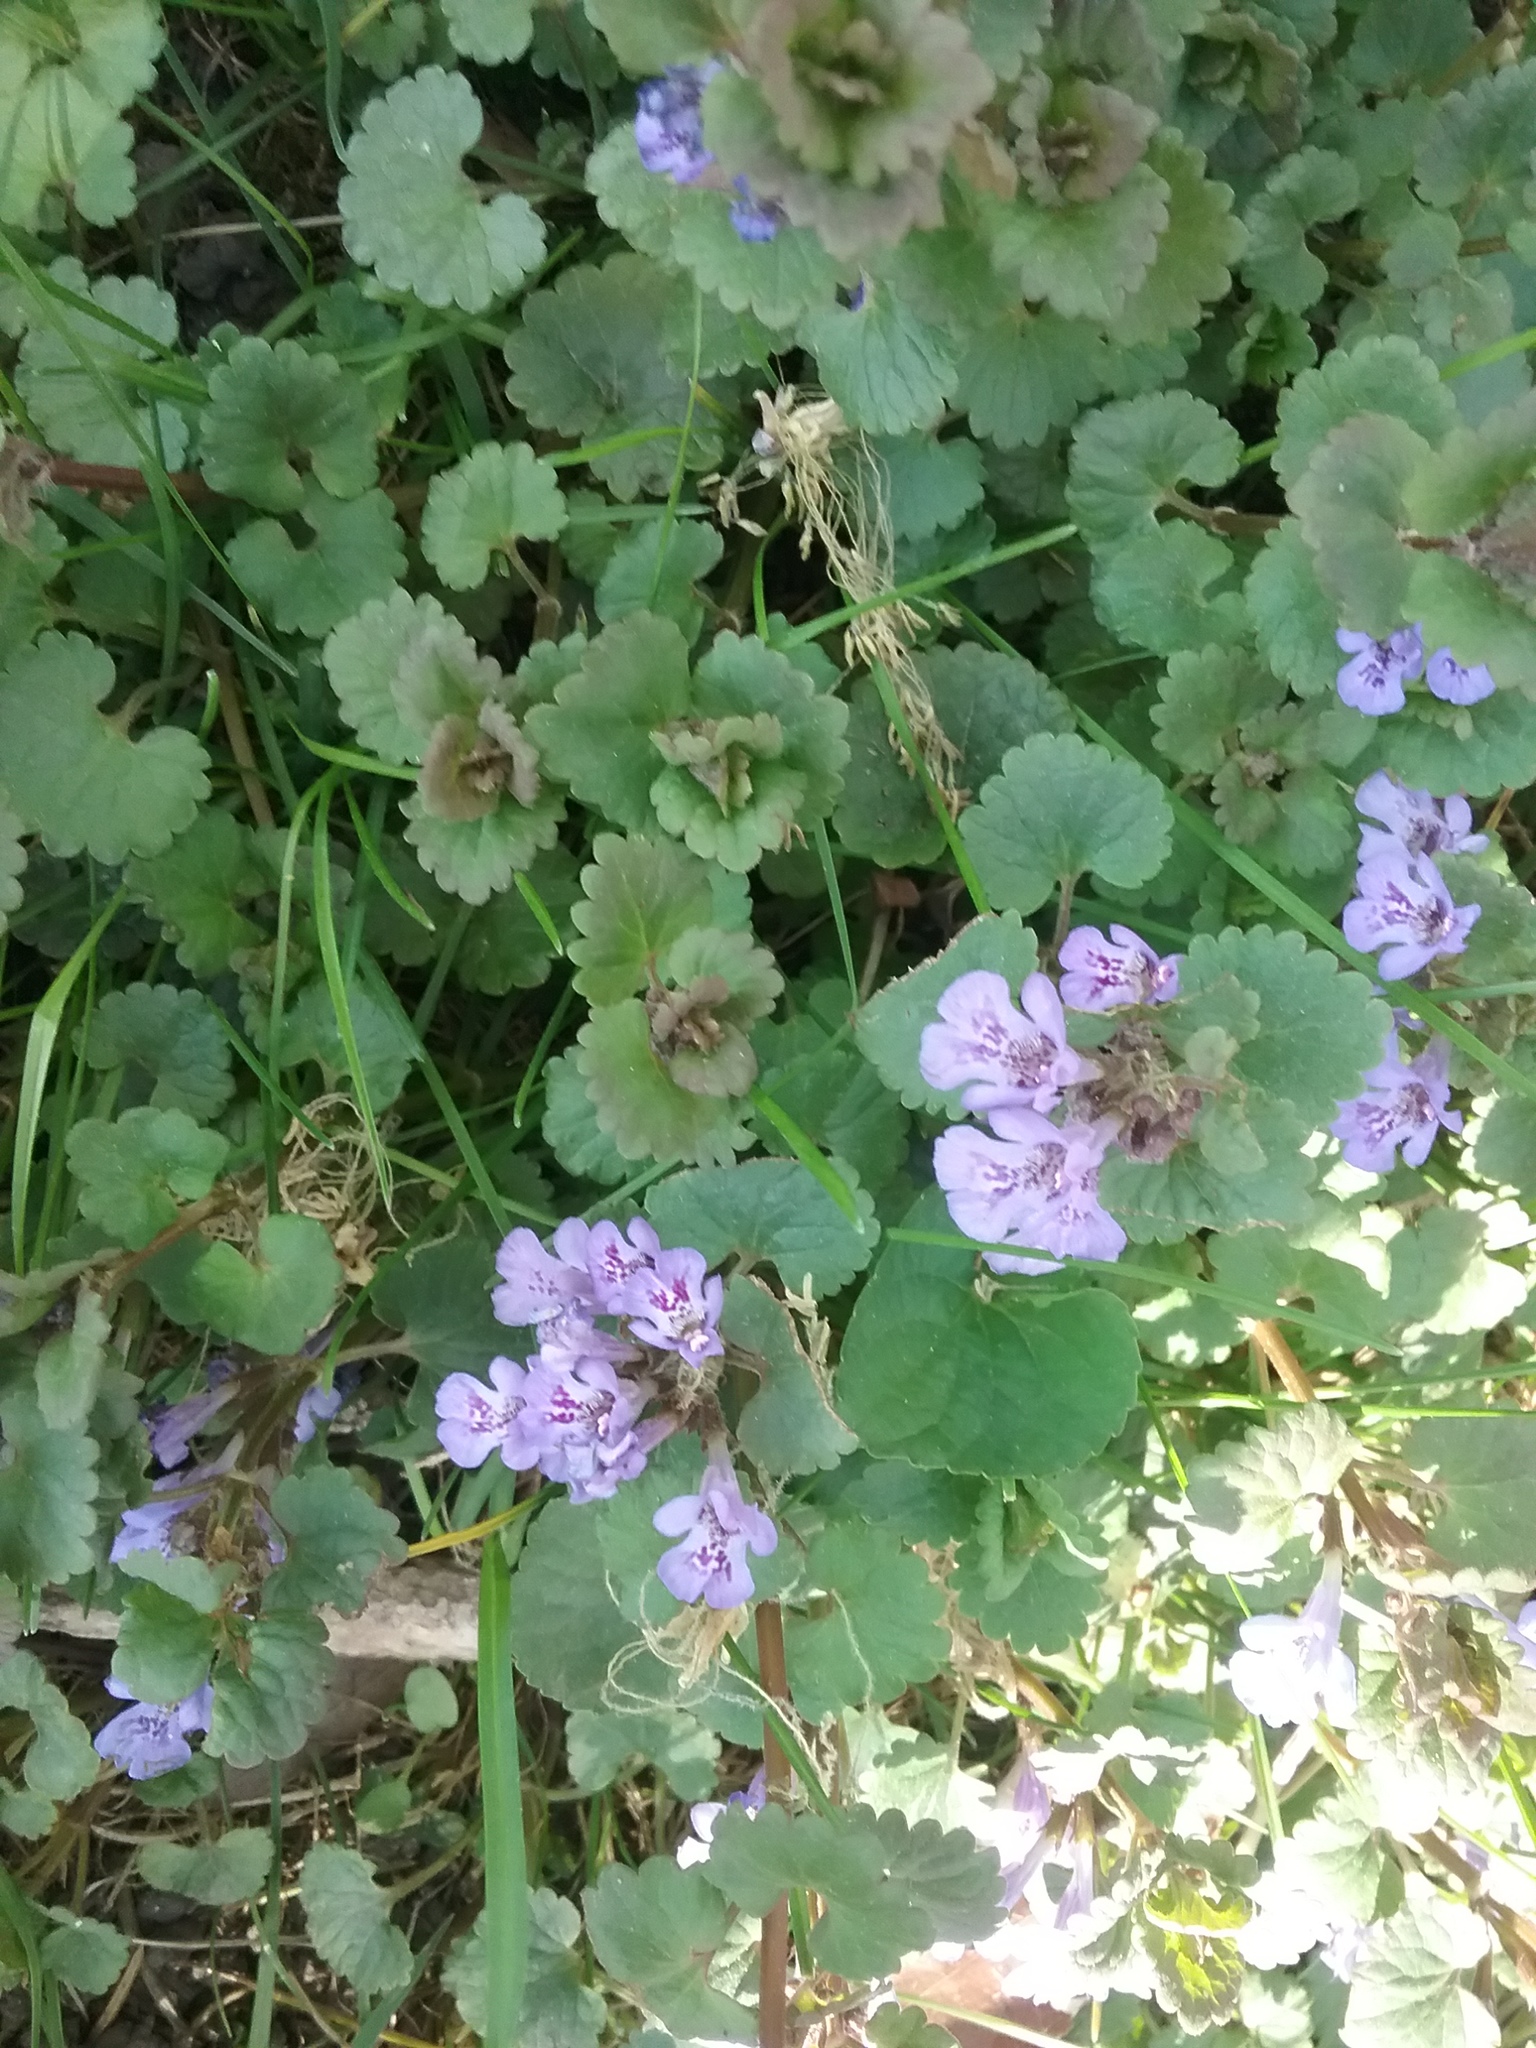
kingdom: Plantae
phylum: Tracheophyta
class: Magnoliopsida
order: Lamiales
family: Lamiaceae
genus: Glechoma
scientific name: Glechoma hederacea
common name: Ground ivy
